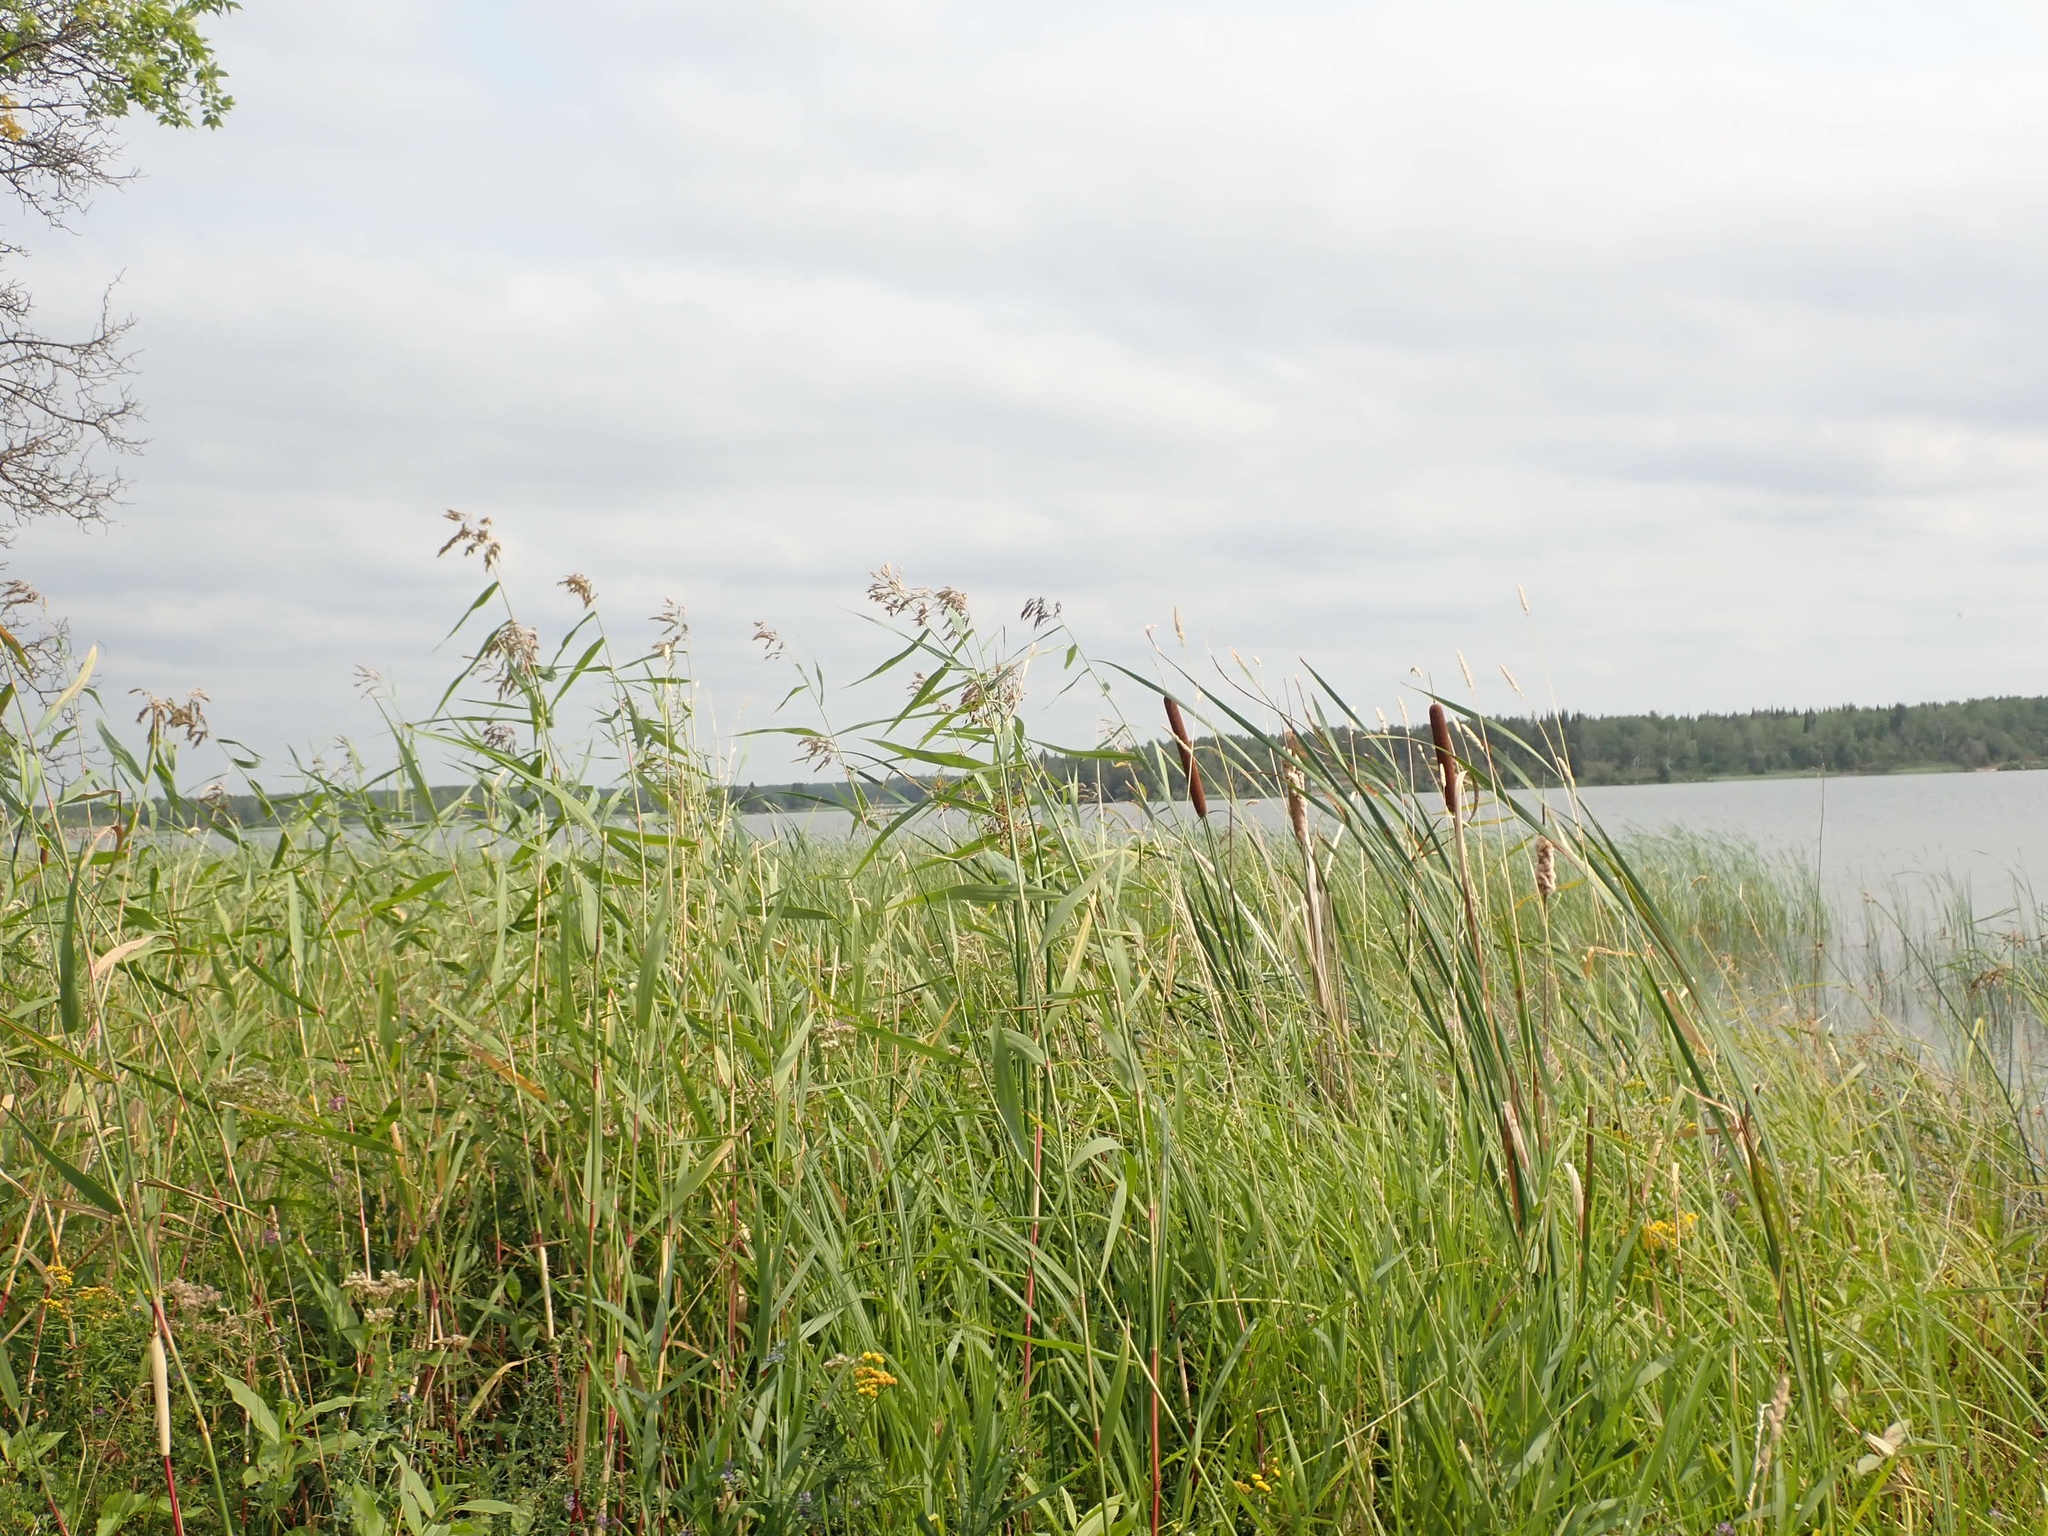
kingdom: Plantae
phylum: Tracheophyta
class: Liliopsida
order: Poales
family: Poaceae
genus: Phragmites
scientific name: Phragmites australis
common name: Common reed
